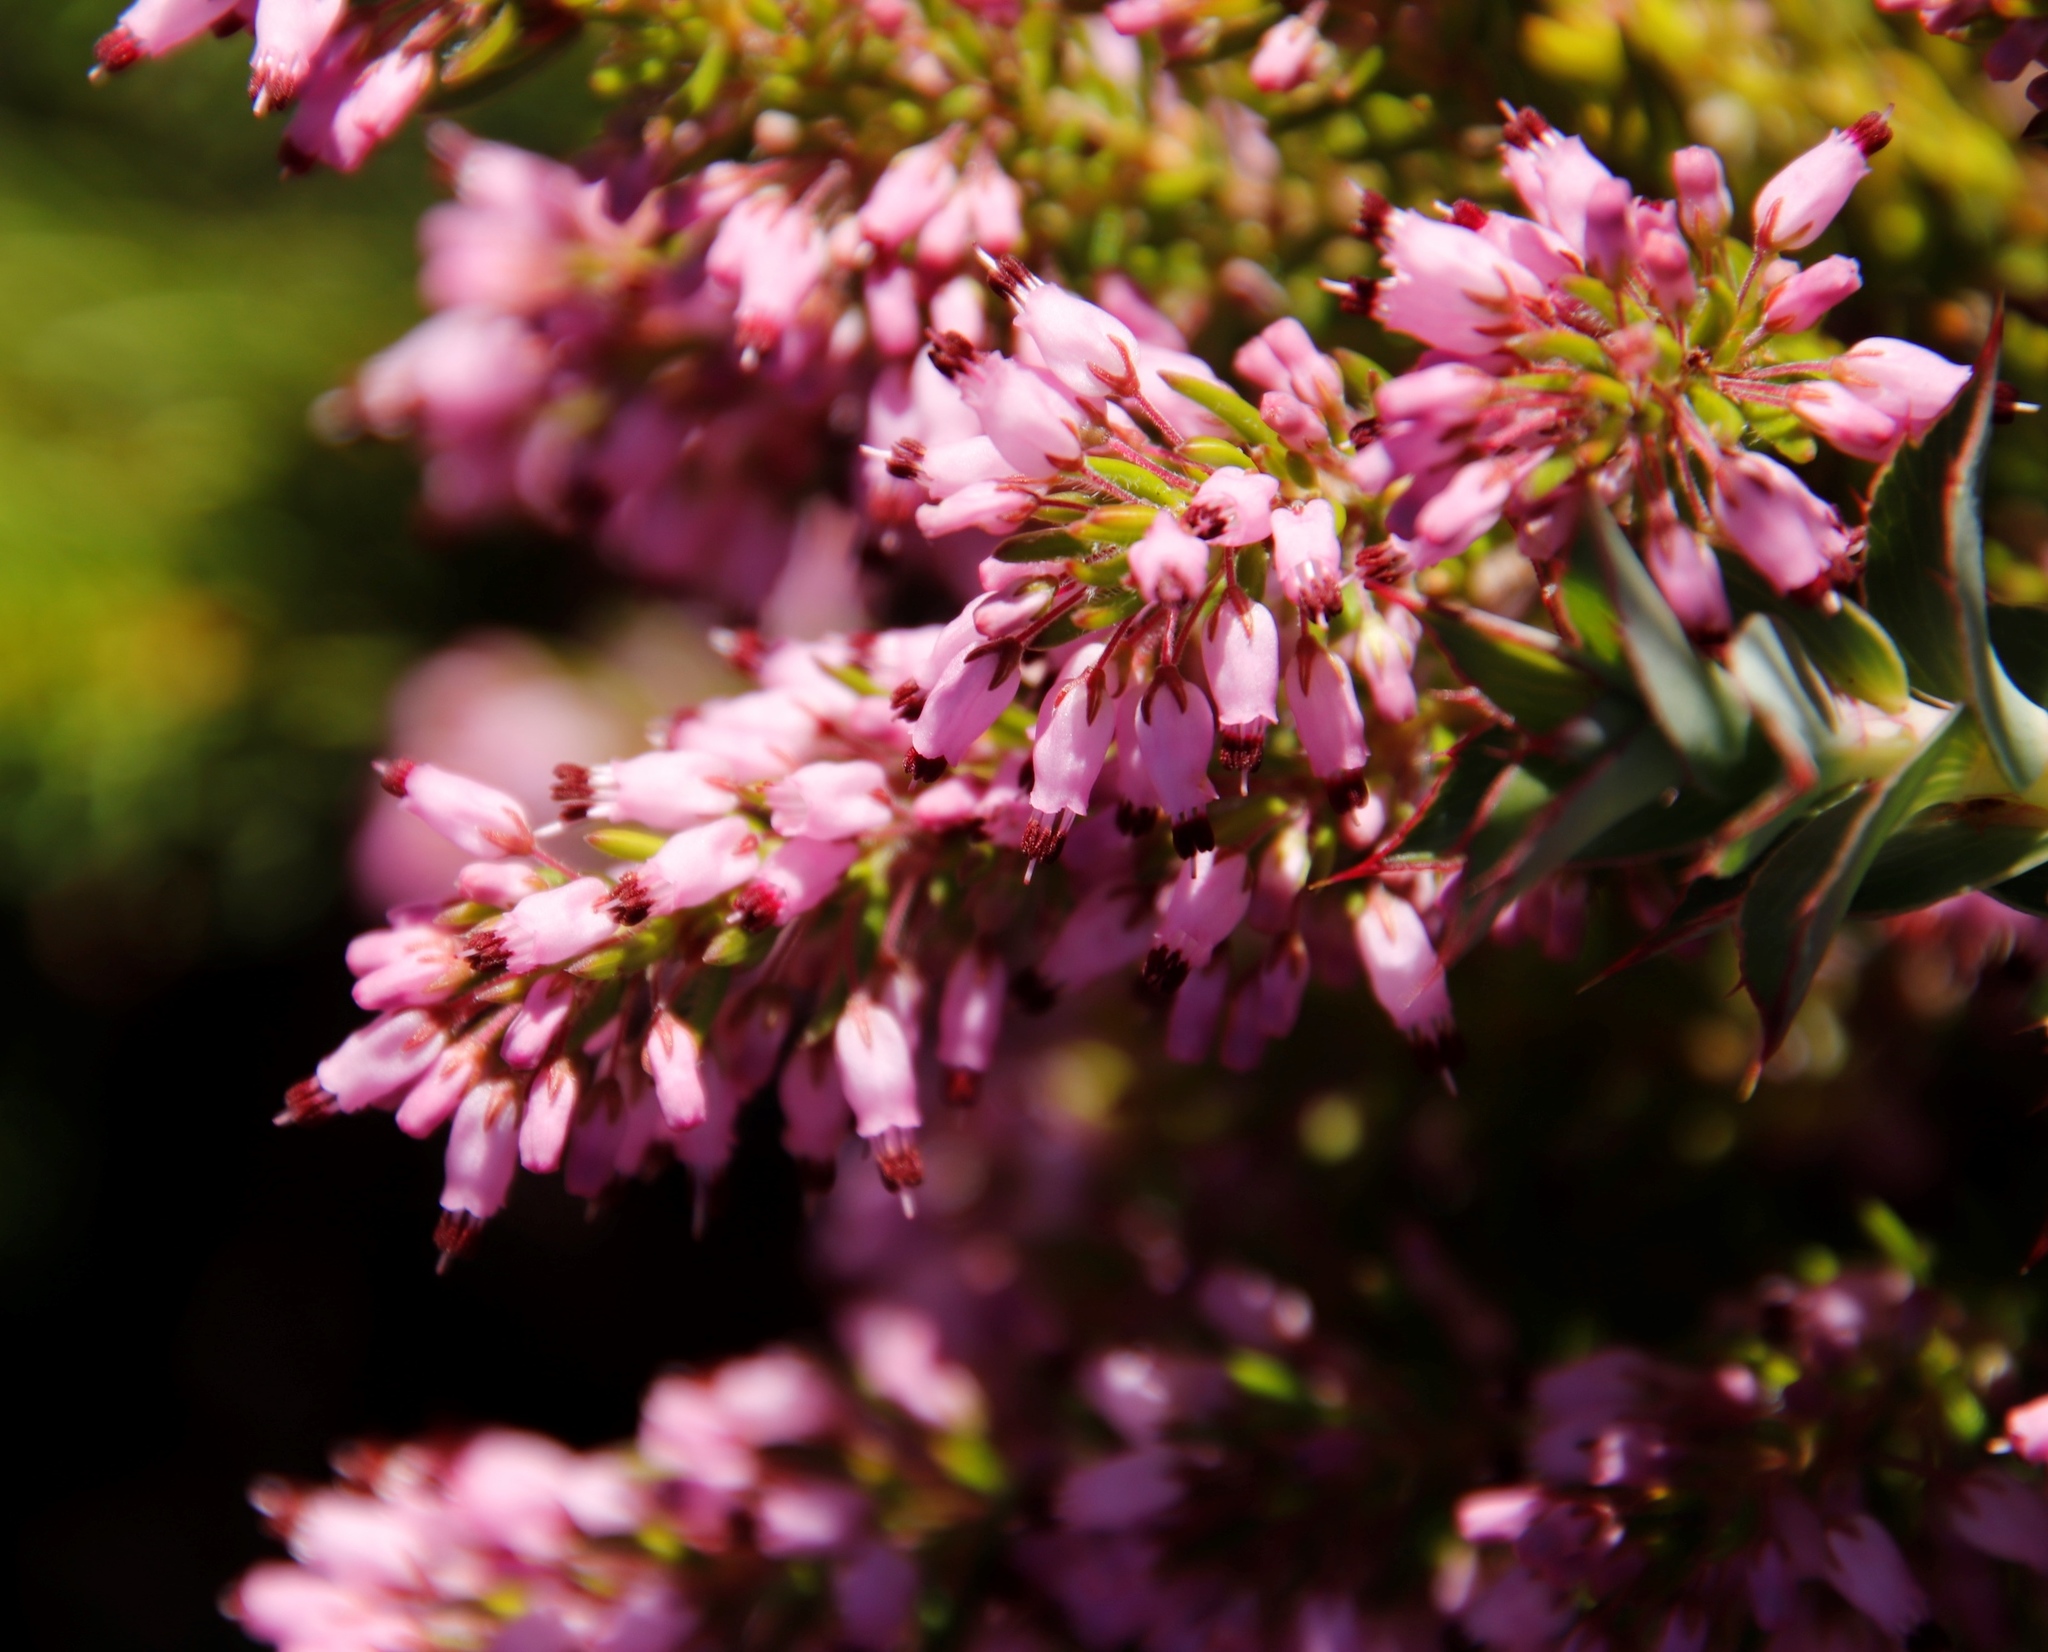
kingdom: Plantae
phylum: Tracheophyta
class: Magnoliopsida
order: Ericales
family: Ericaceae
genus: Erica
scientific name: Erica nudiflora
